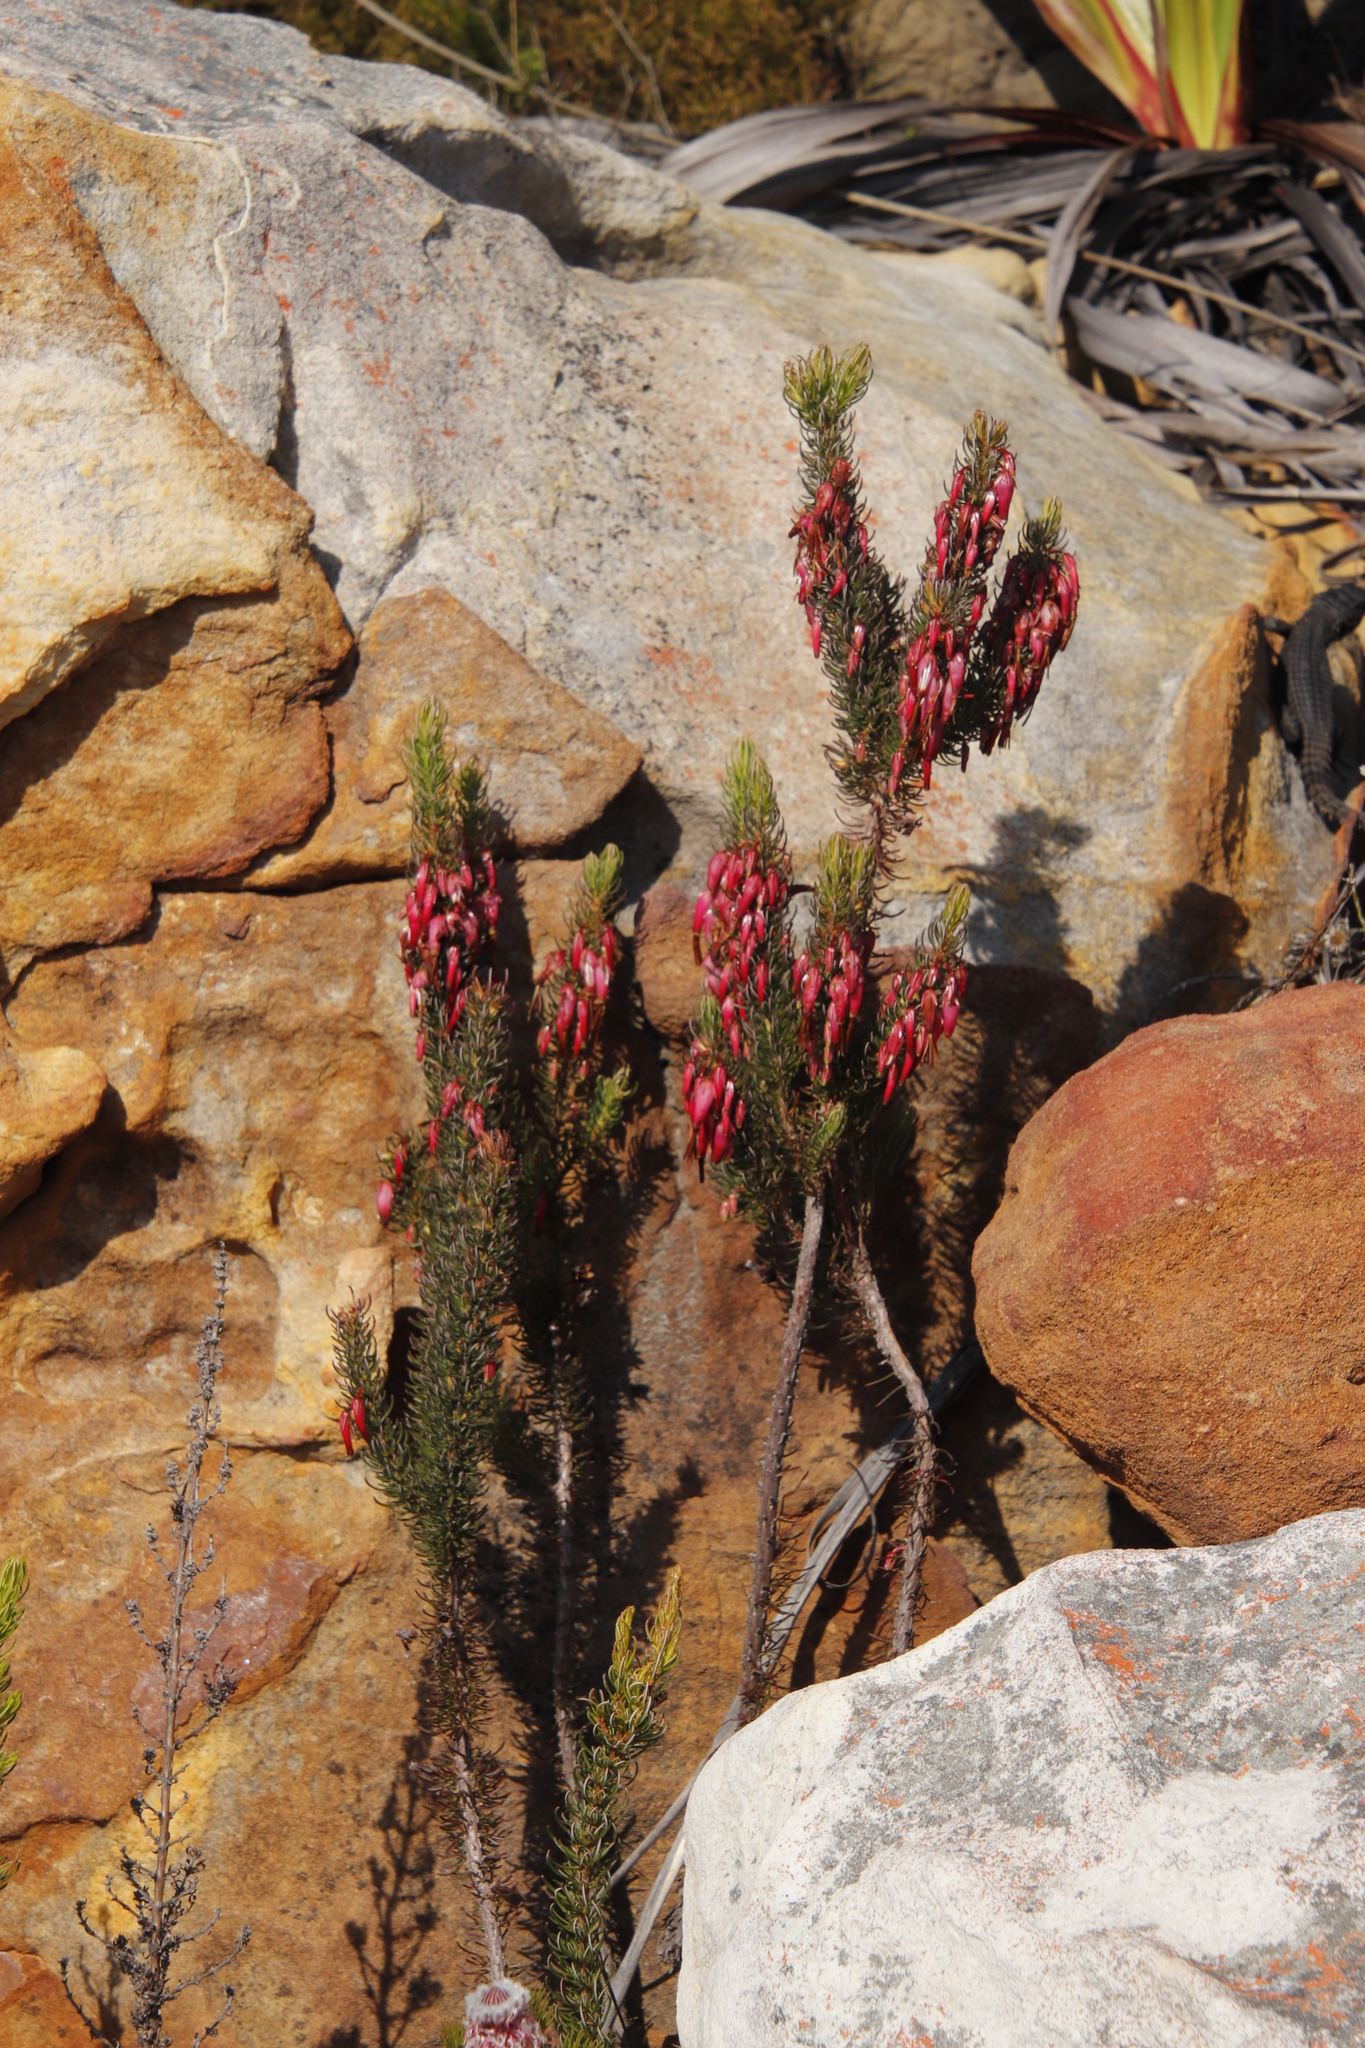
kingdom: Plantae
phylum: Tracheophyta
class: Magnoliopsida
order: Ericales
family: Ericaceae
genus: Erica
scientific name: Erica plukenetii
